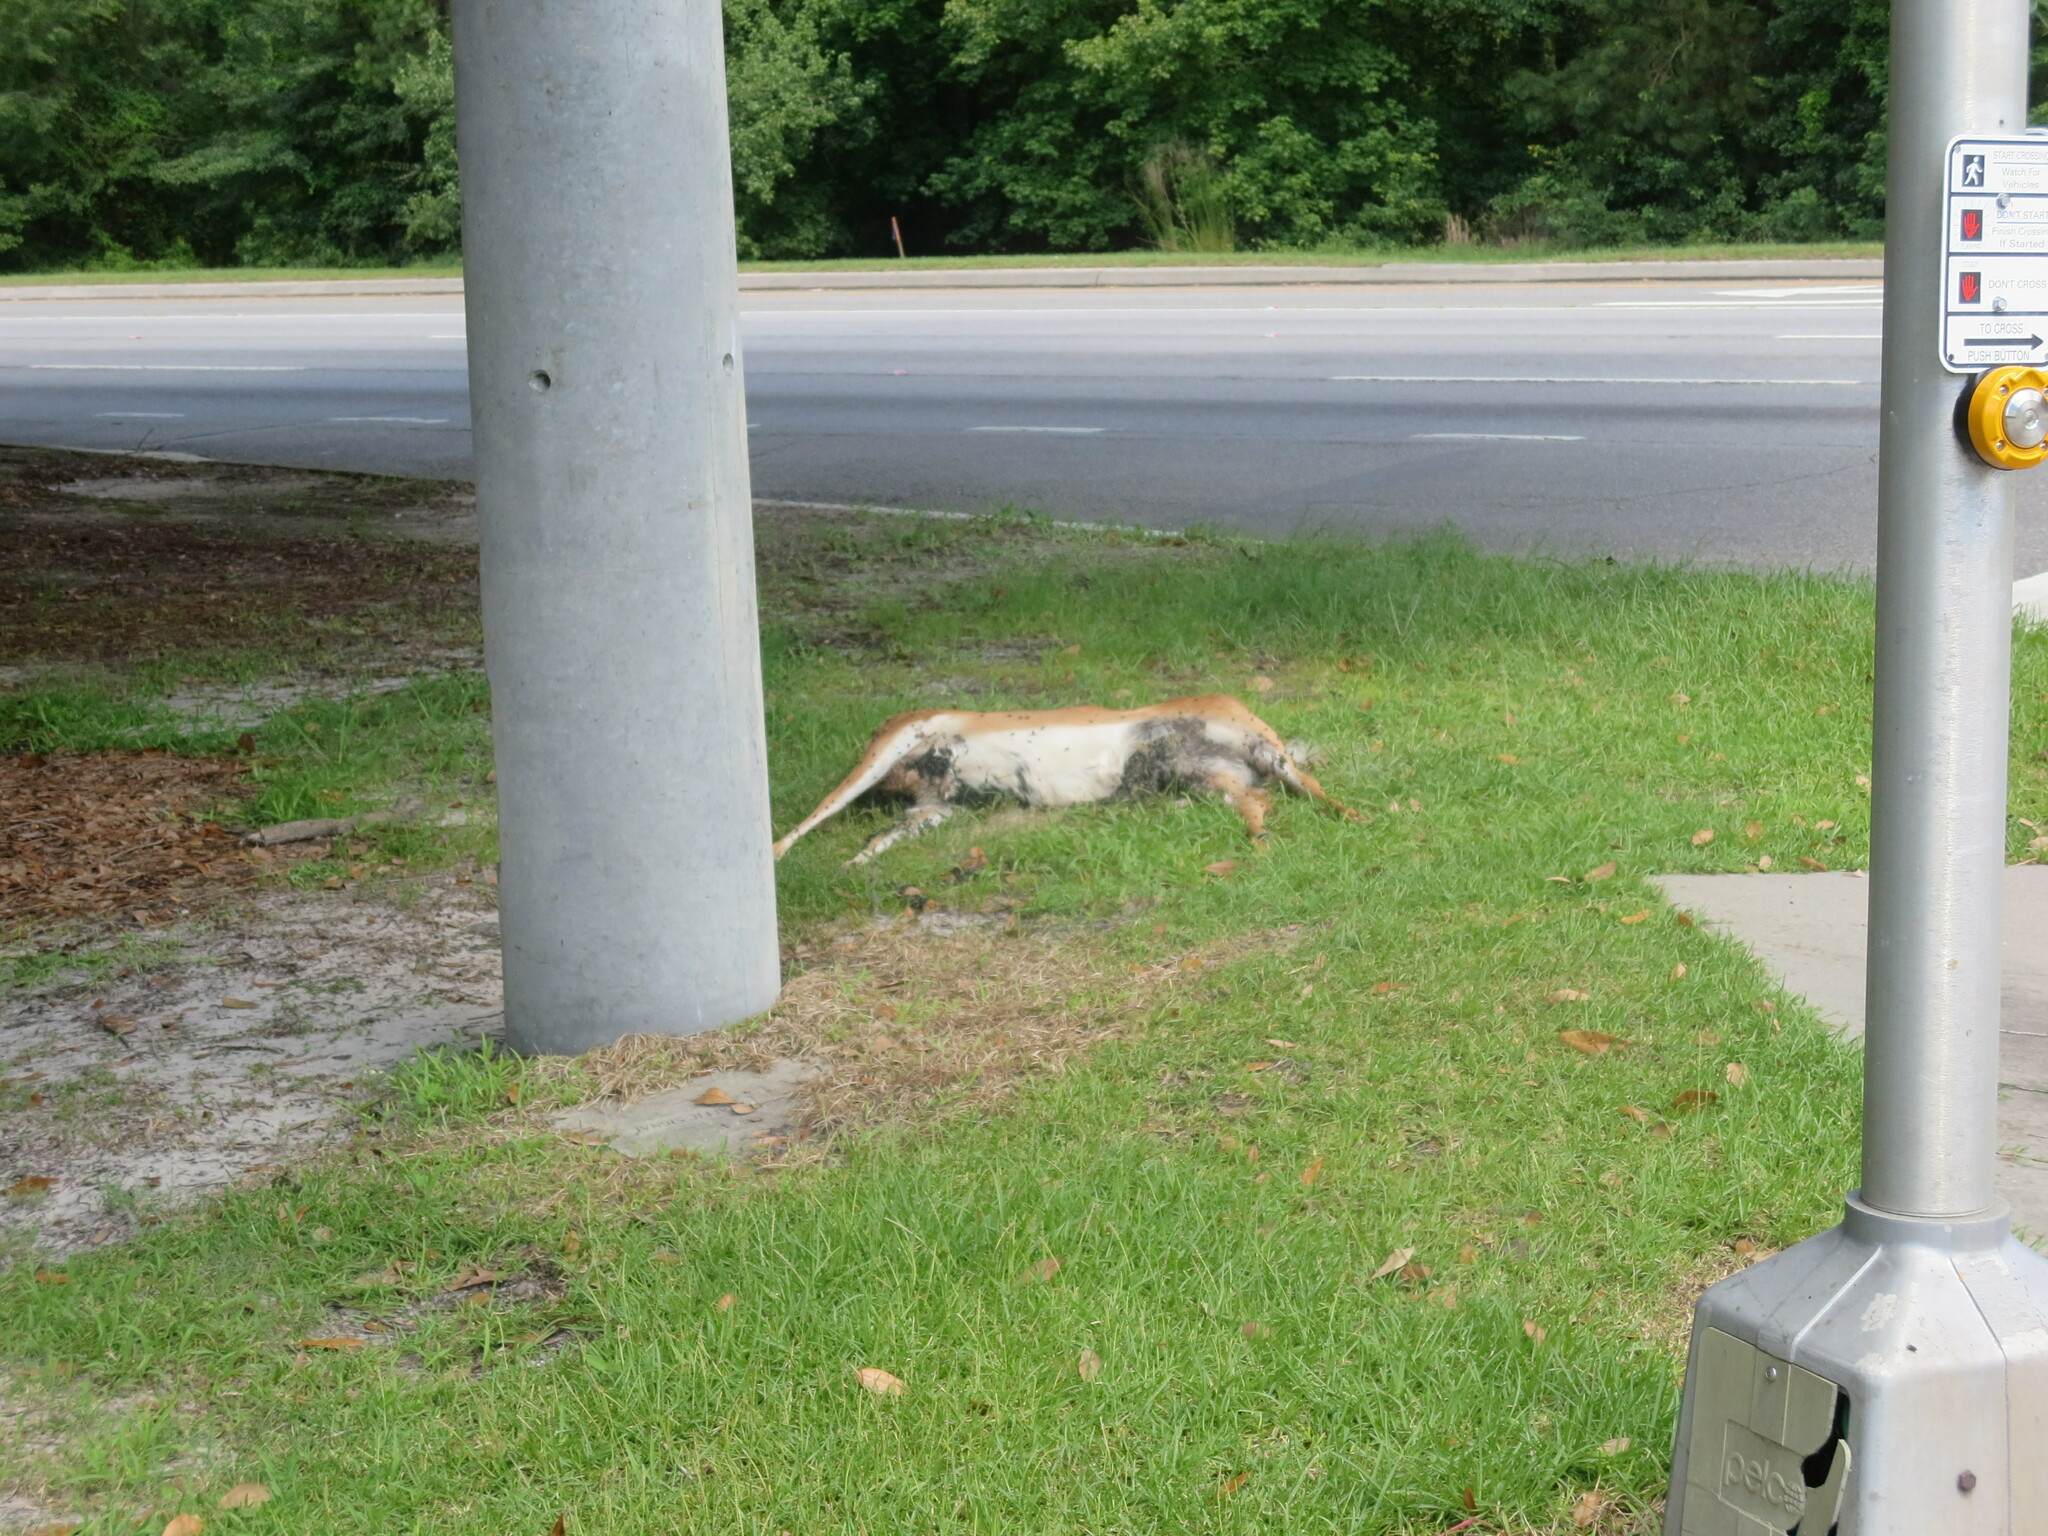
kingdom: Animalia
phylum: Chordata
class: Mammalia
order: Artiodactyla
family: Cervidae
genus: Odocoileus
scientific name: Odocoileus virginianus
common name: White-tailed deer
